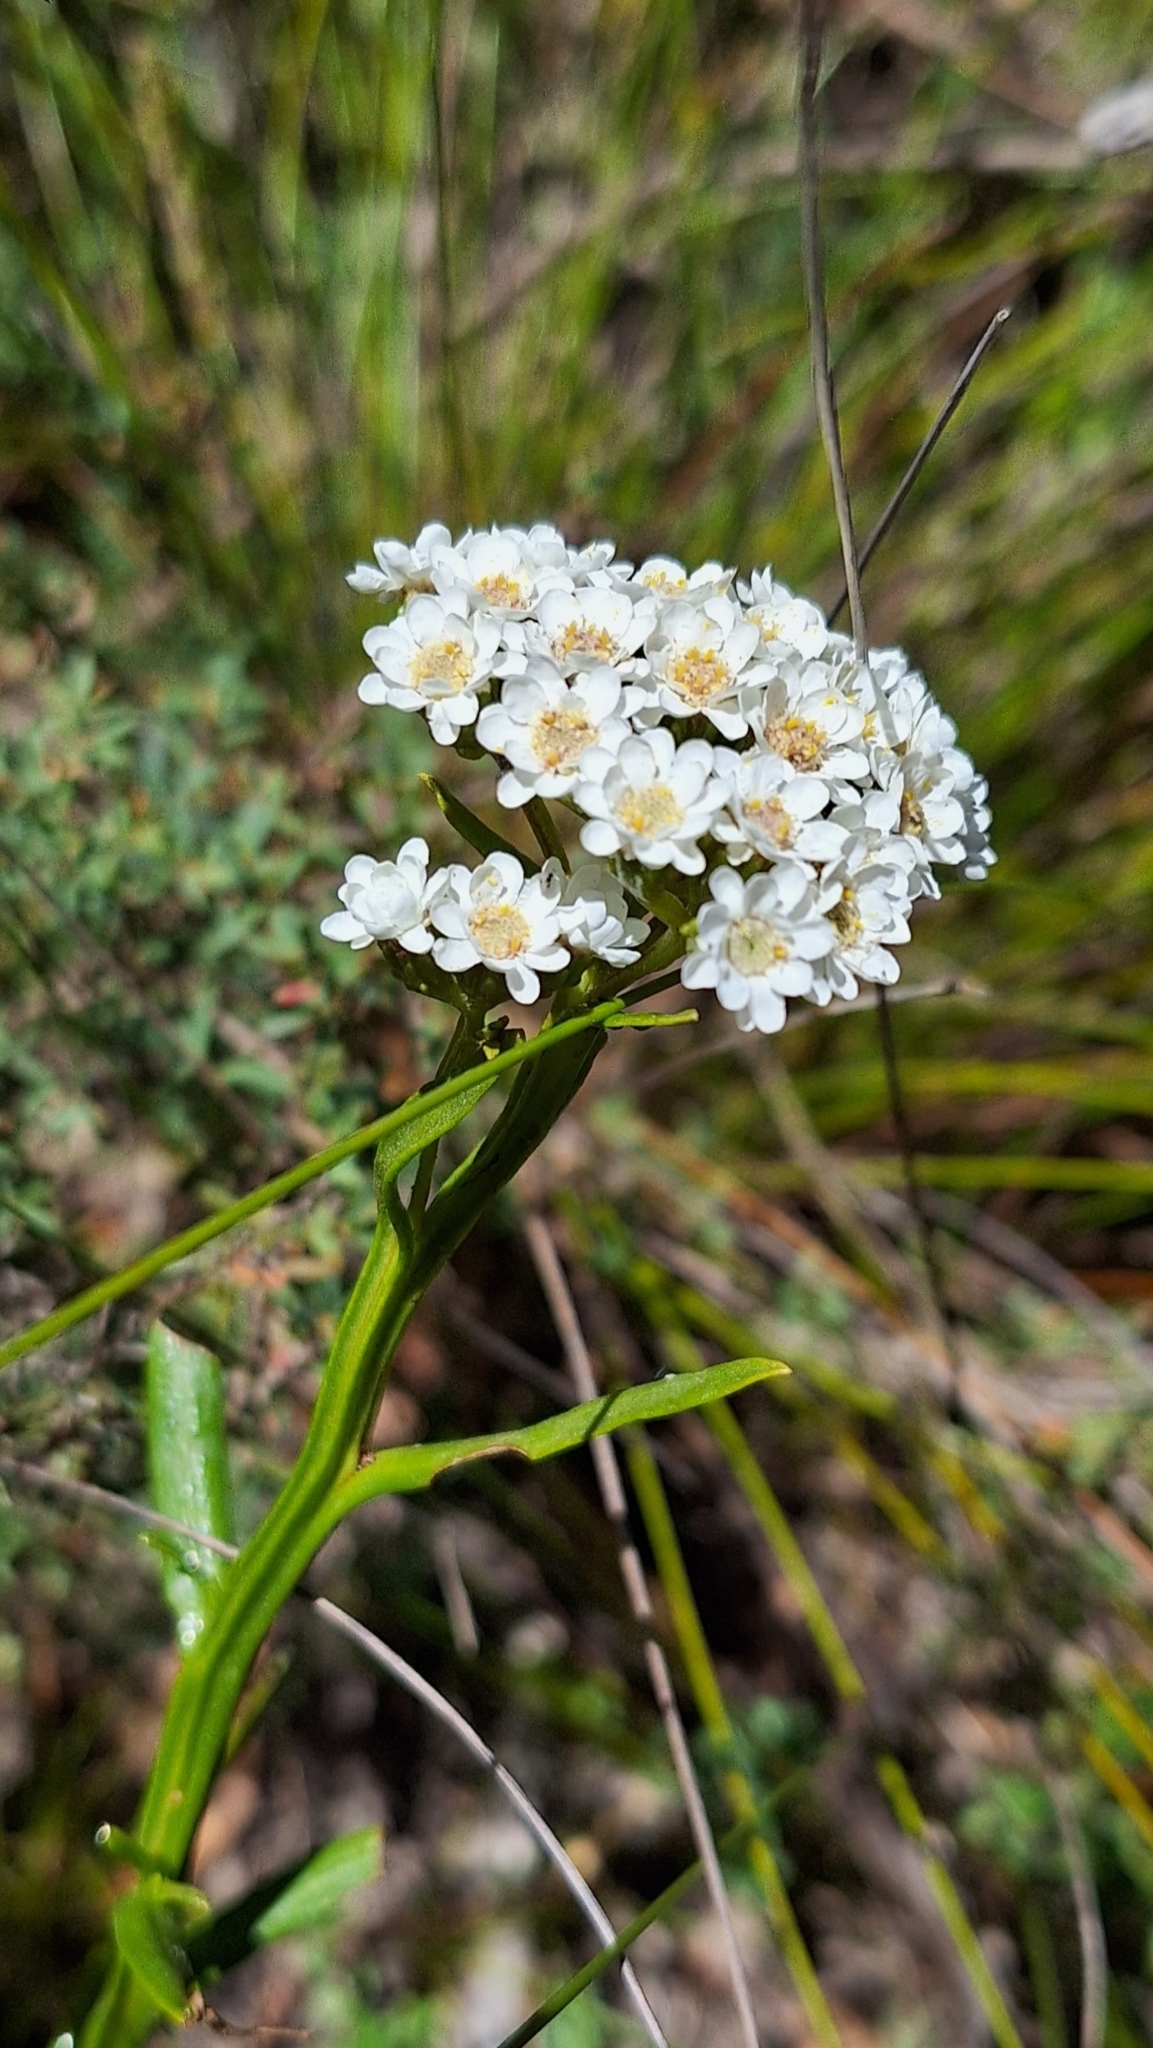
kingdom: Plantae
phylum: Tracheophyta
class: Magnoliopsida
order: Asterales
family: Asteraceae
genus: Ixodia
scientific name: Ixodia achillaeoides
